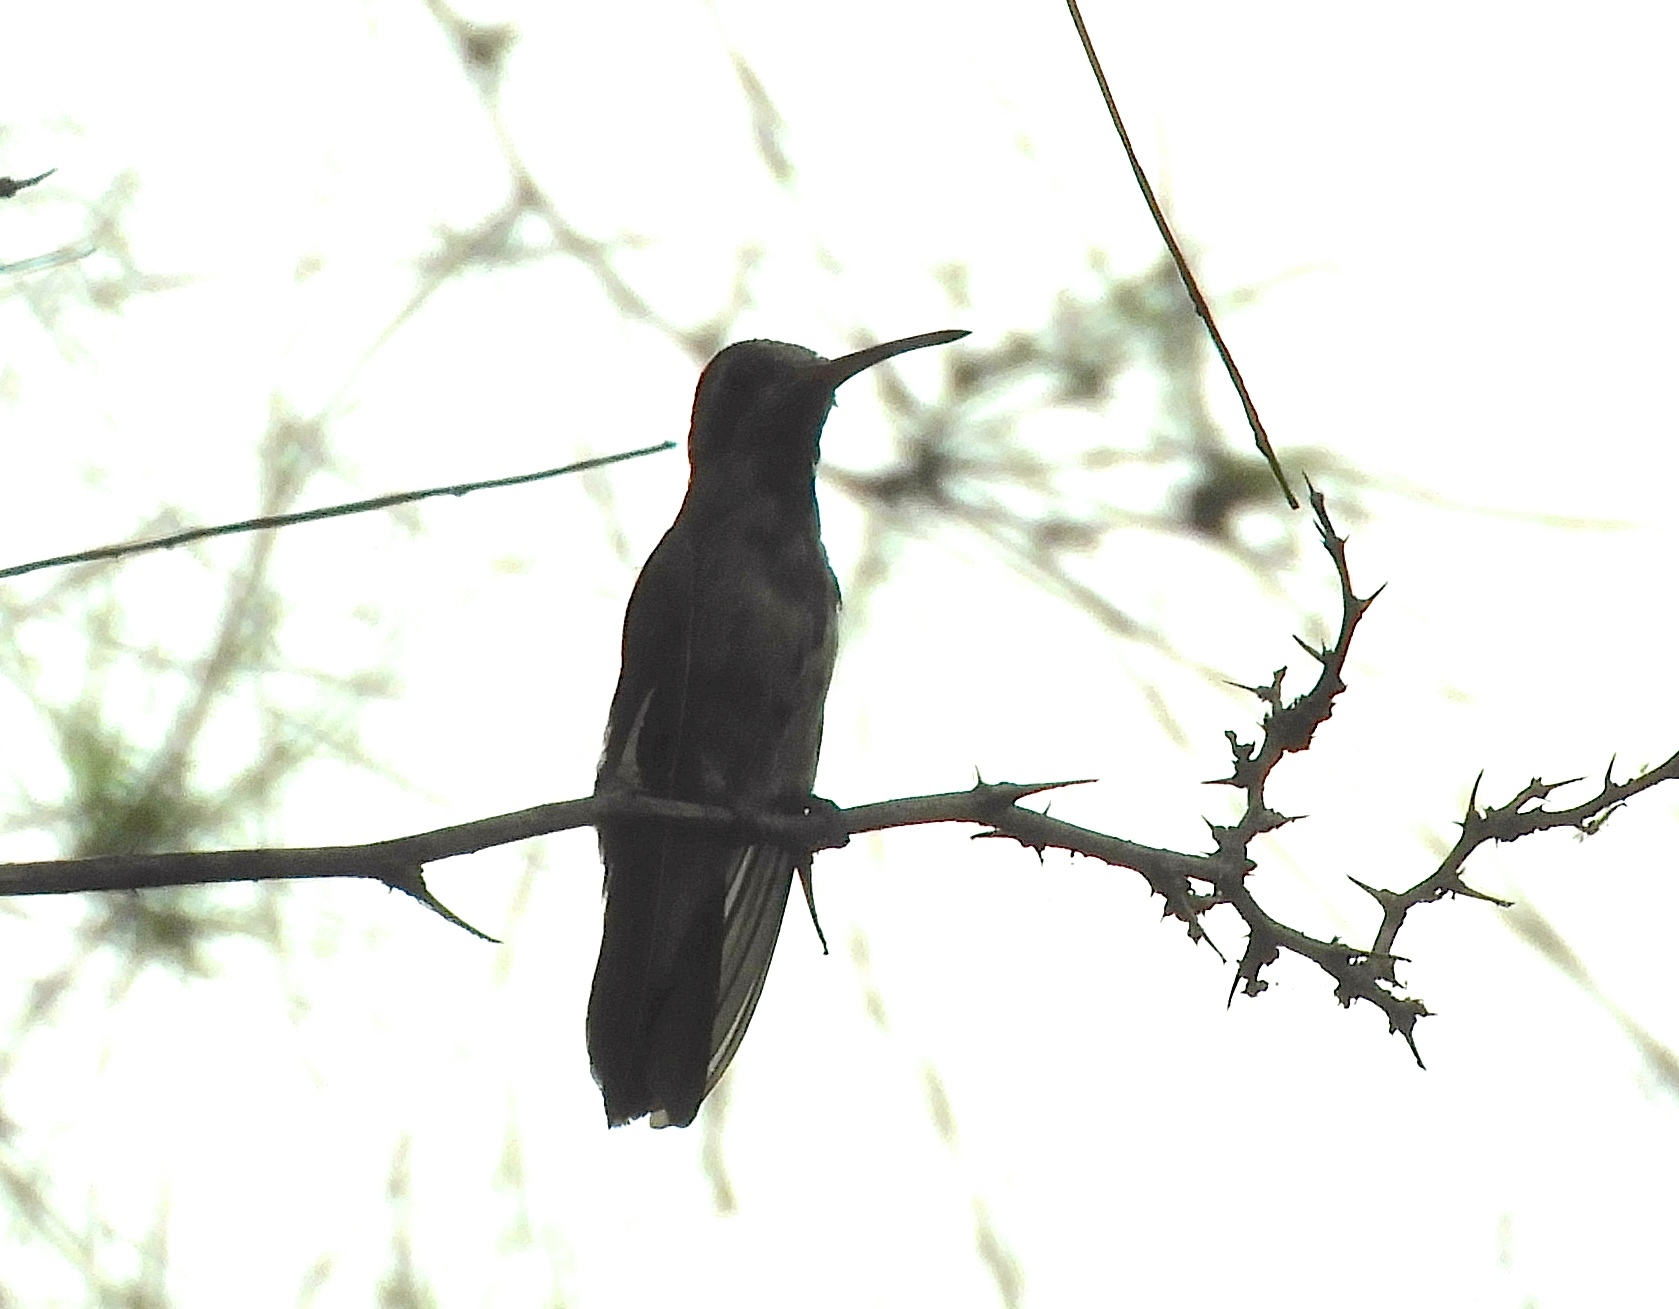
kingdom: Animalia
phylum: Chordata
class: Aves
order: Apodiformes
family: Trochilidae
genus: Cynanthus
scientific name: Cynanthus latirostris
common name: Broad-billed hummingbird
